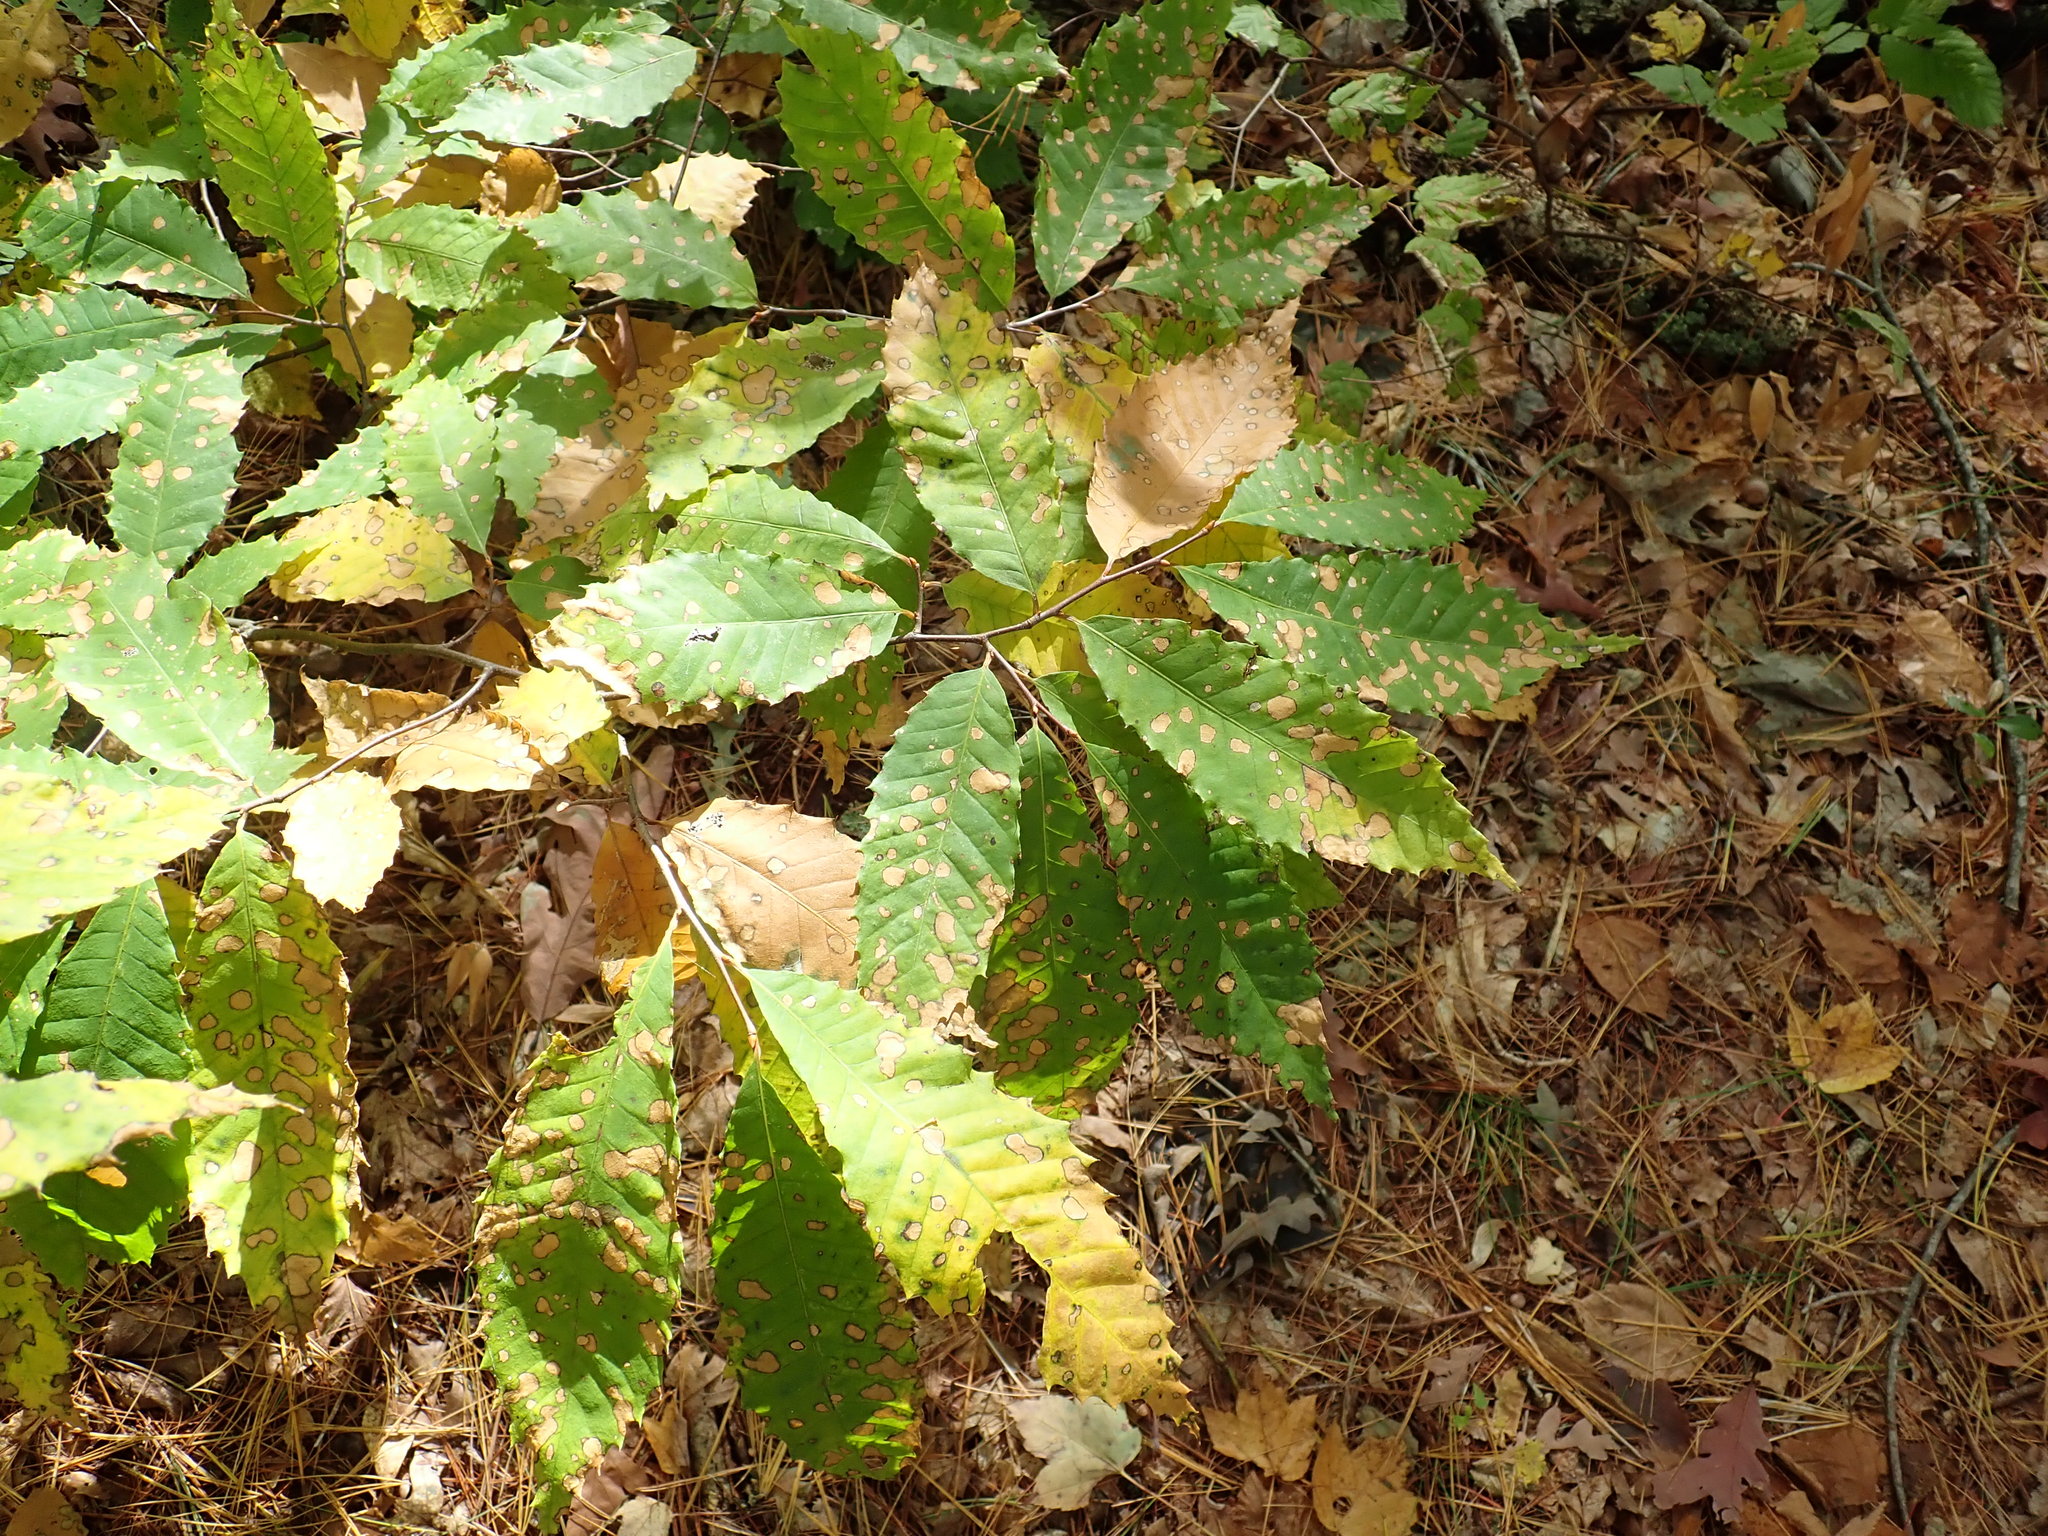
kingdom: Plantae
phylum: Tracheophyta
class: Magnoliopsida
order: Fagales
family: Fagaceae
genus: Castanea
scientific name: Castanea dentata
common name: American chestnut
